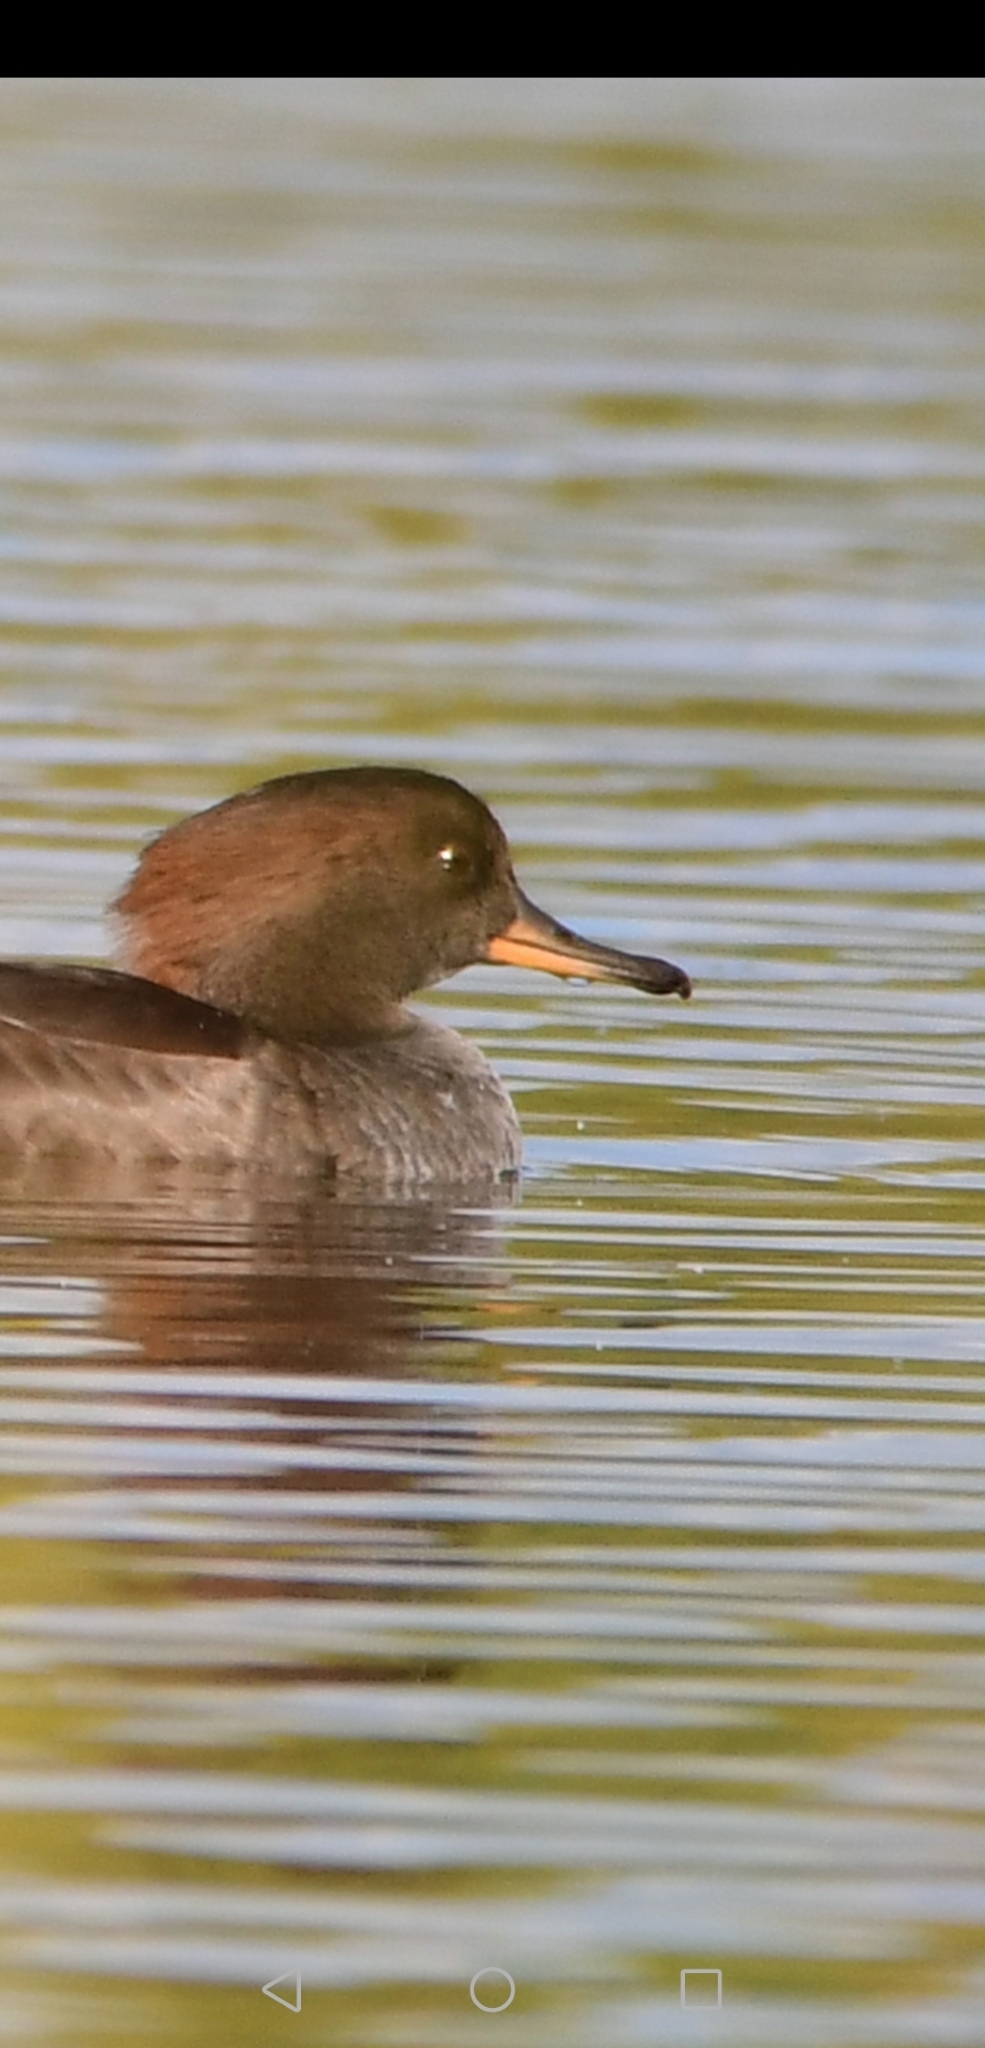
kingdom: Animalia
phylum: Chordata
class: Aves
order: Anseriformes
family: Anatidae
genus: Lophodytes
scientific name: Lophodytes cucullatus
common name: Hooded merganser
